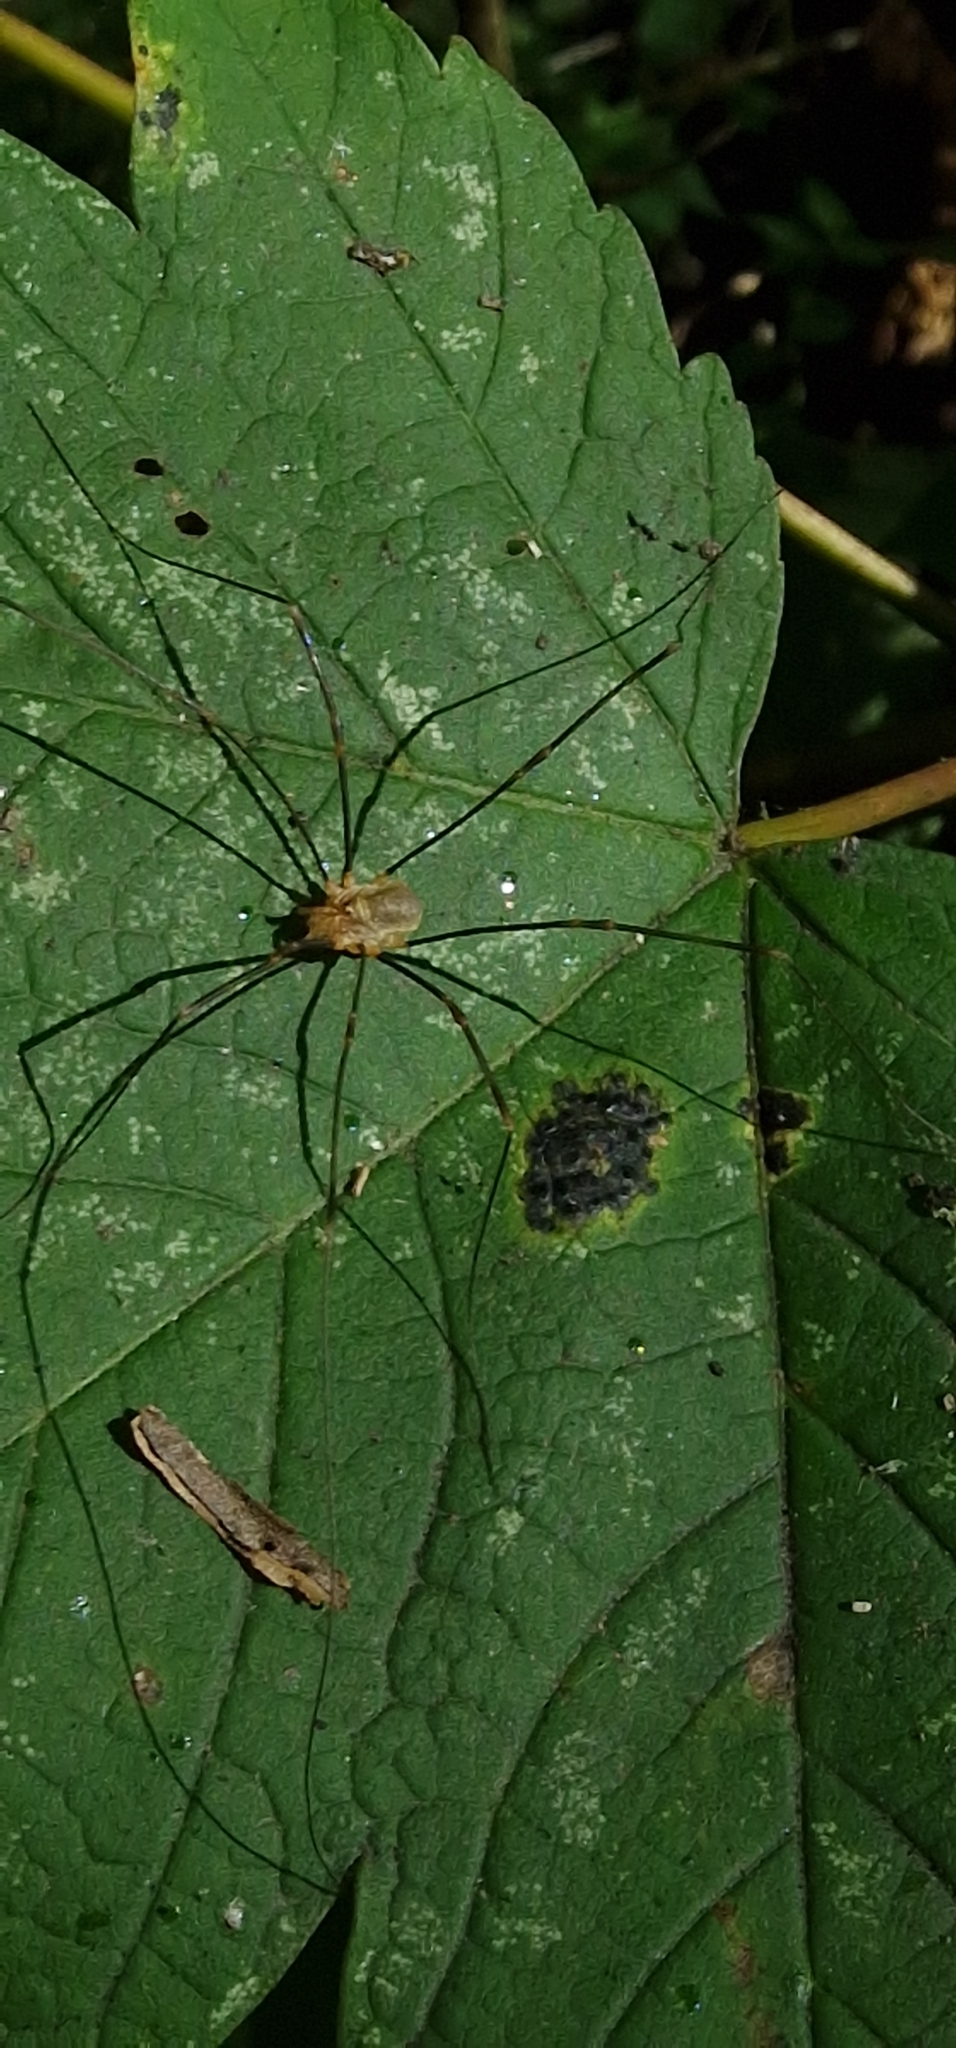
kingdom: Animalia
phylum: Arthropoda
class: Arachnida
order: Opiliones
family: Phalangiidae
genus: Opilio
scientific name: Opilio canestrinii
